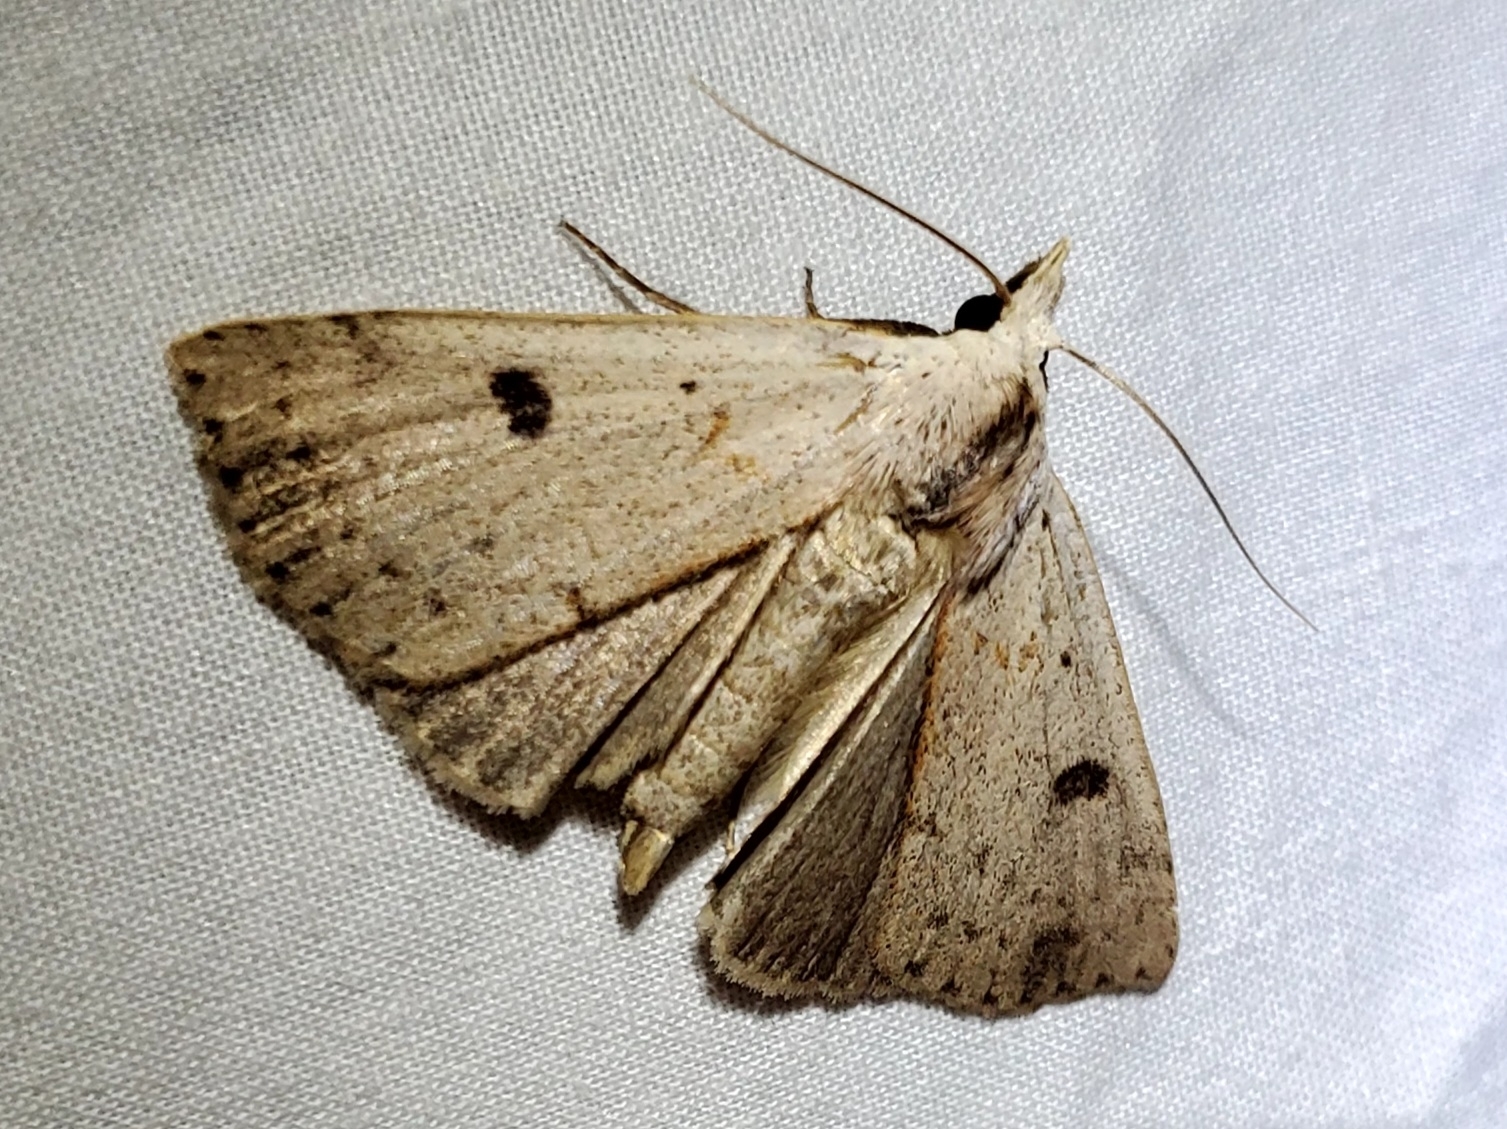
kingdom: Animalia
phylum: Arthropoda
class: Insecta
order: Lepidoptera
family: Erebidae
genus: Scolecocampa
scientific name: Scolecocampa liburna
